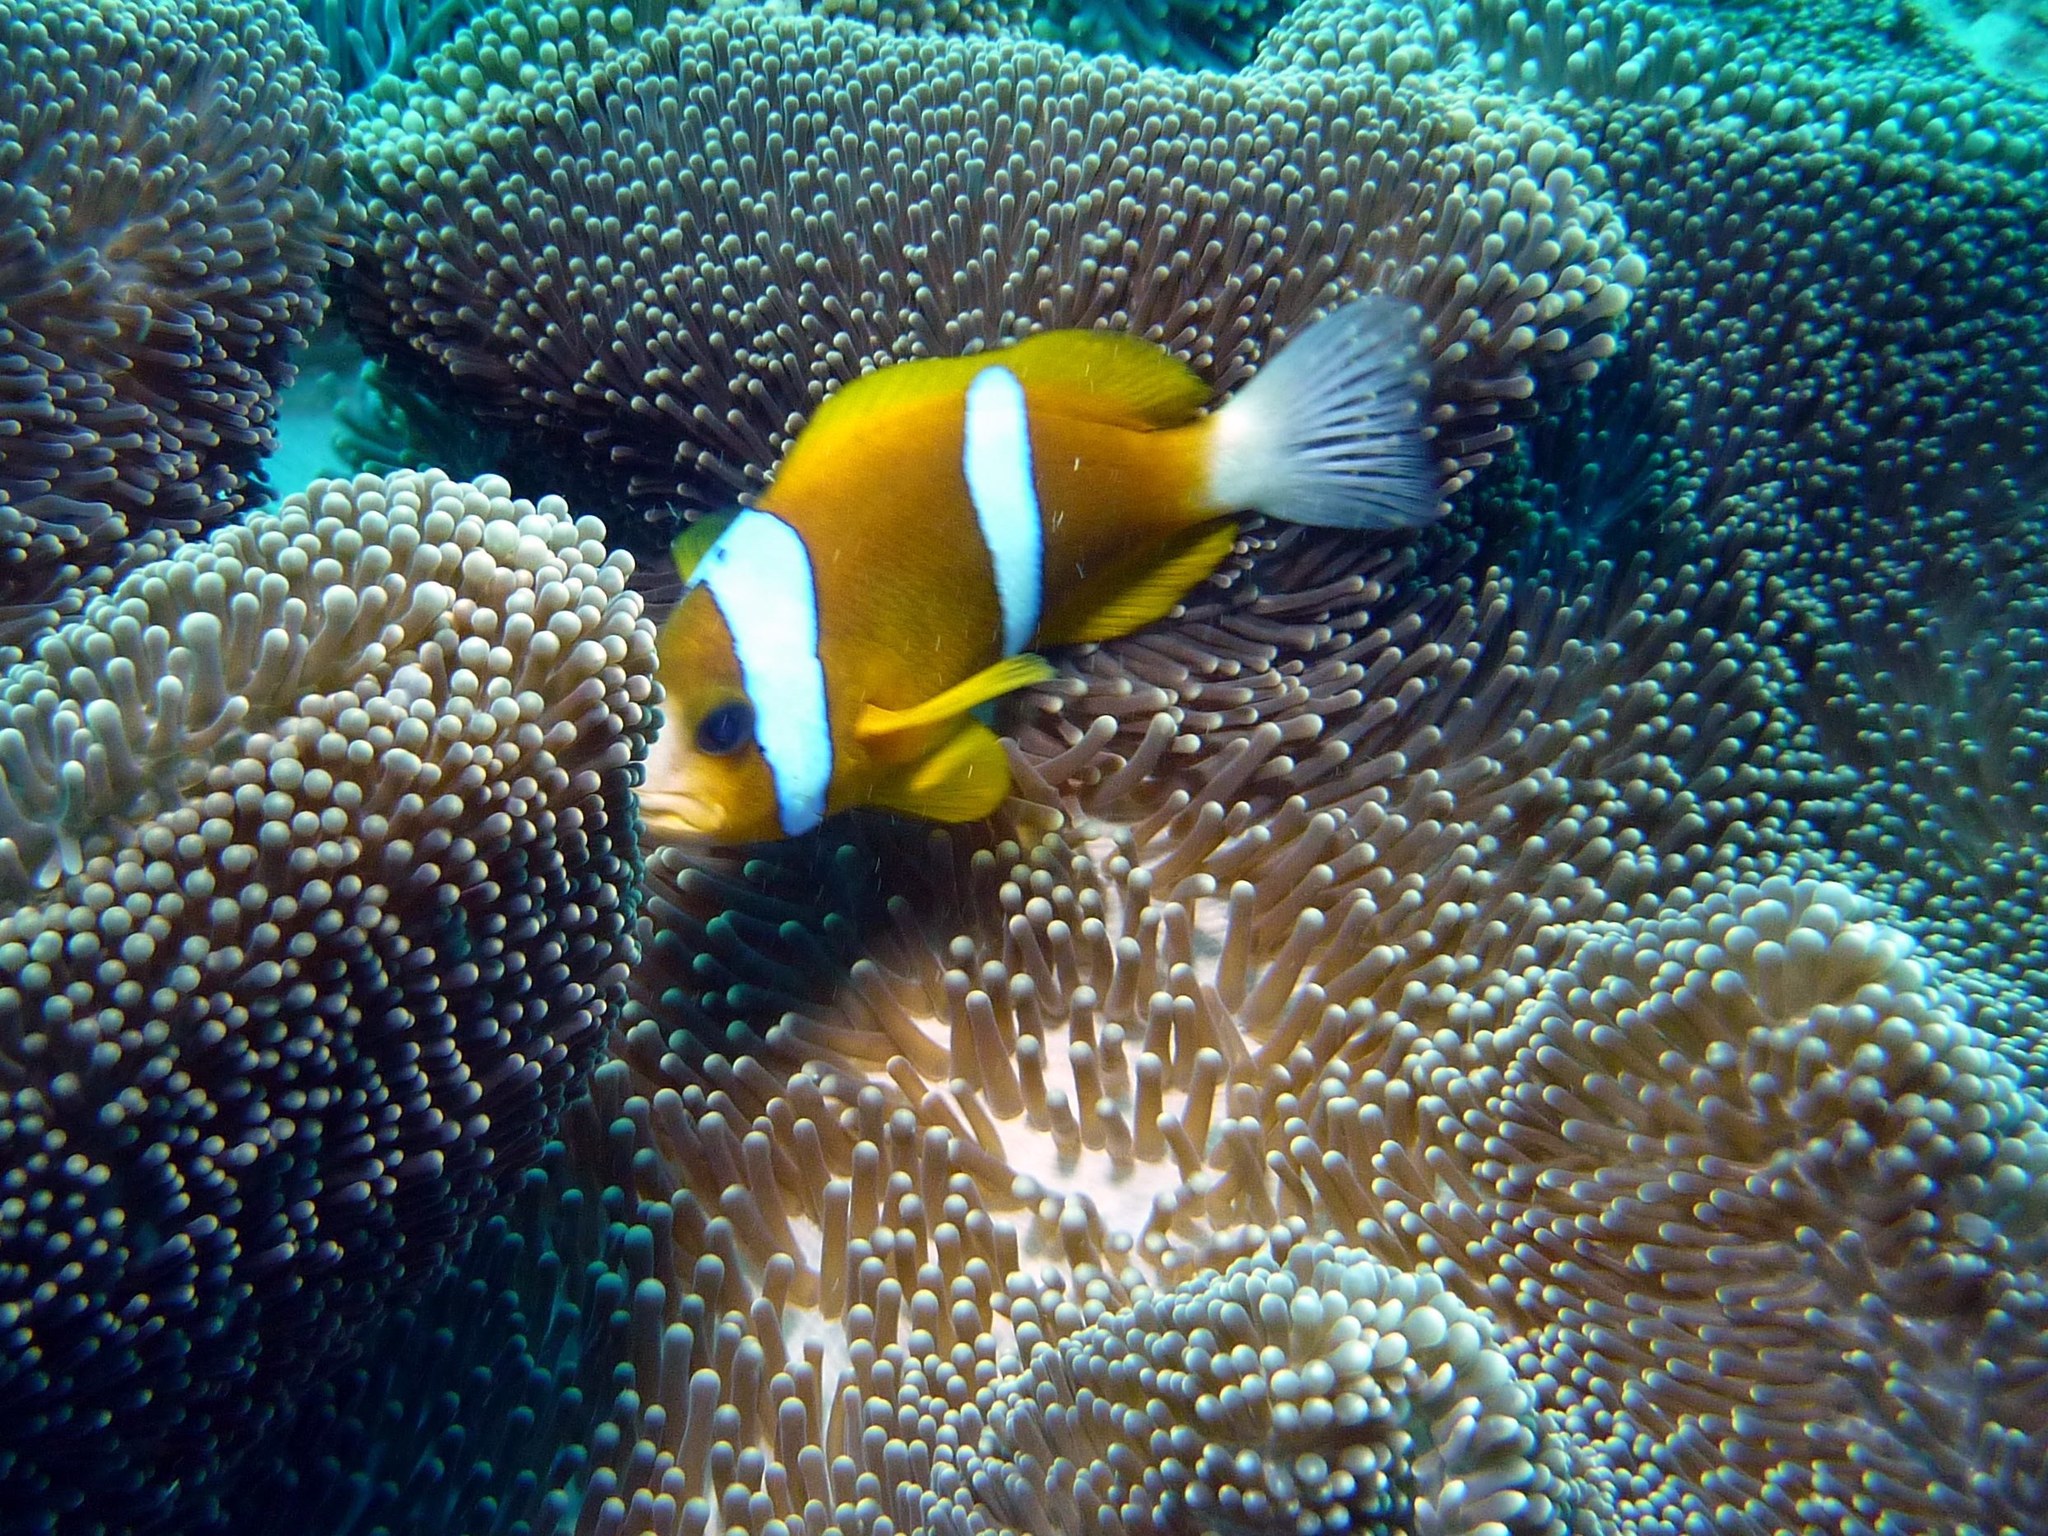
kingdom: Animalia
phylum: Chordata
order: Perciformes
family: Pomacentridae
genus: Amphiprion
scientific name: Amphiprion clarkii
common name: Clark's anemonefish
